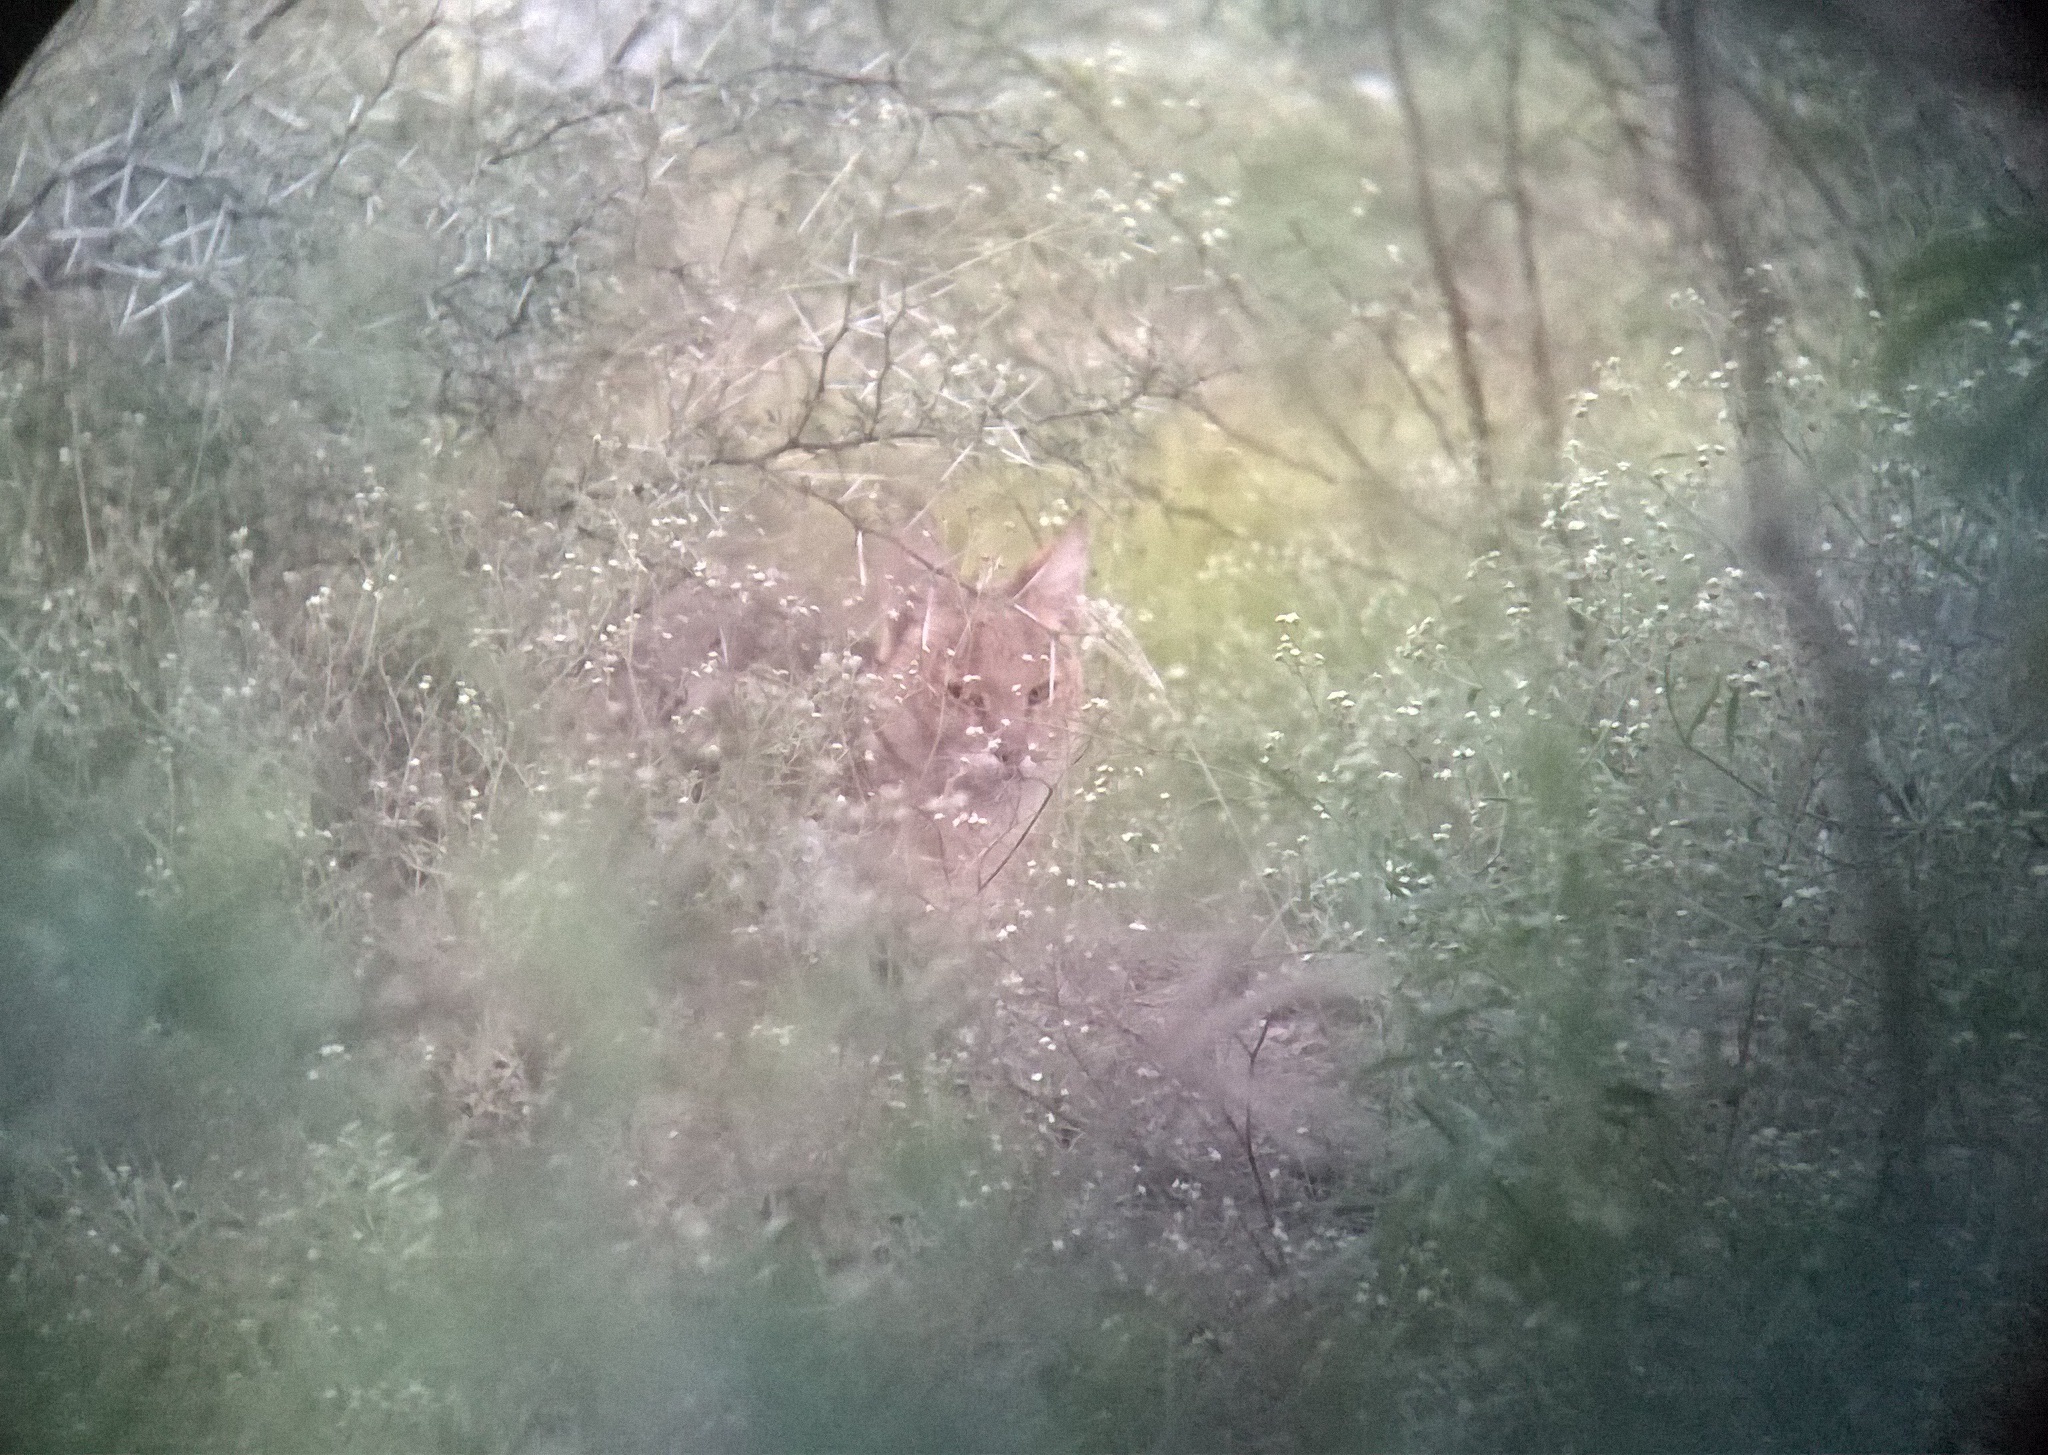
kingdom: Animalia
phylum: Chordata
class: Mammalia
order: Carnivora
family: Felidae
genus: Felis
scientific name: Felis chaus
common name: Jungle cat
